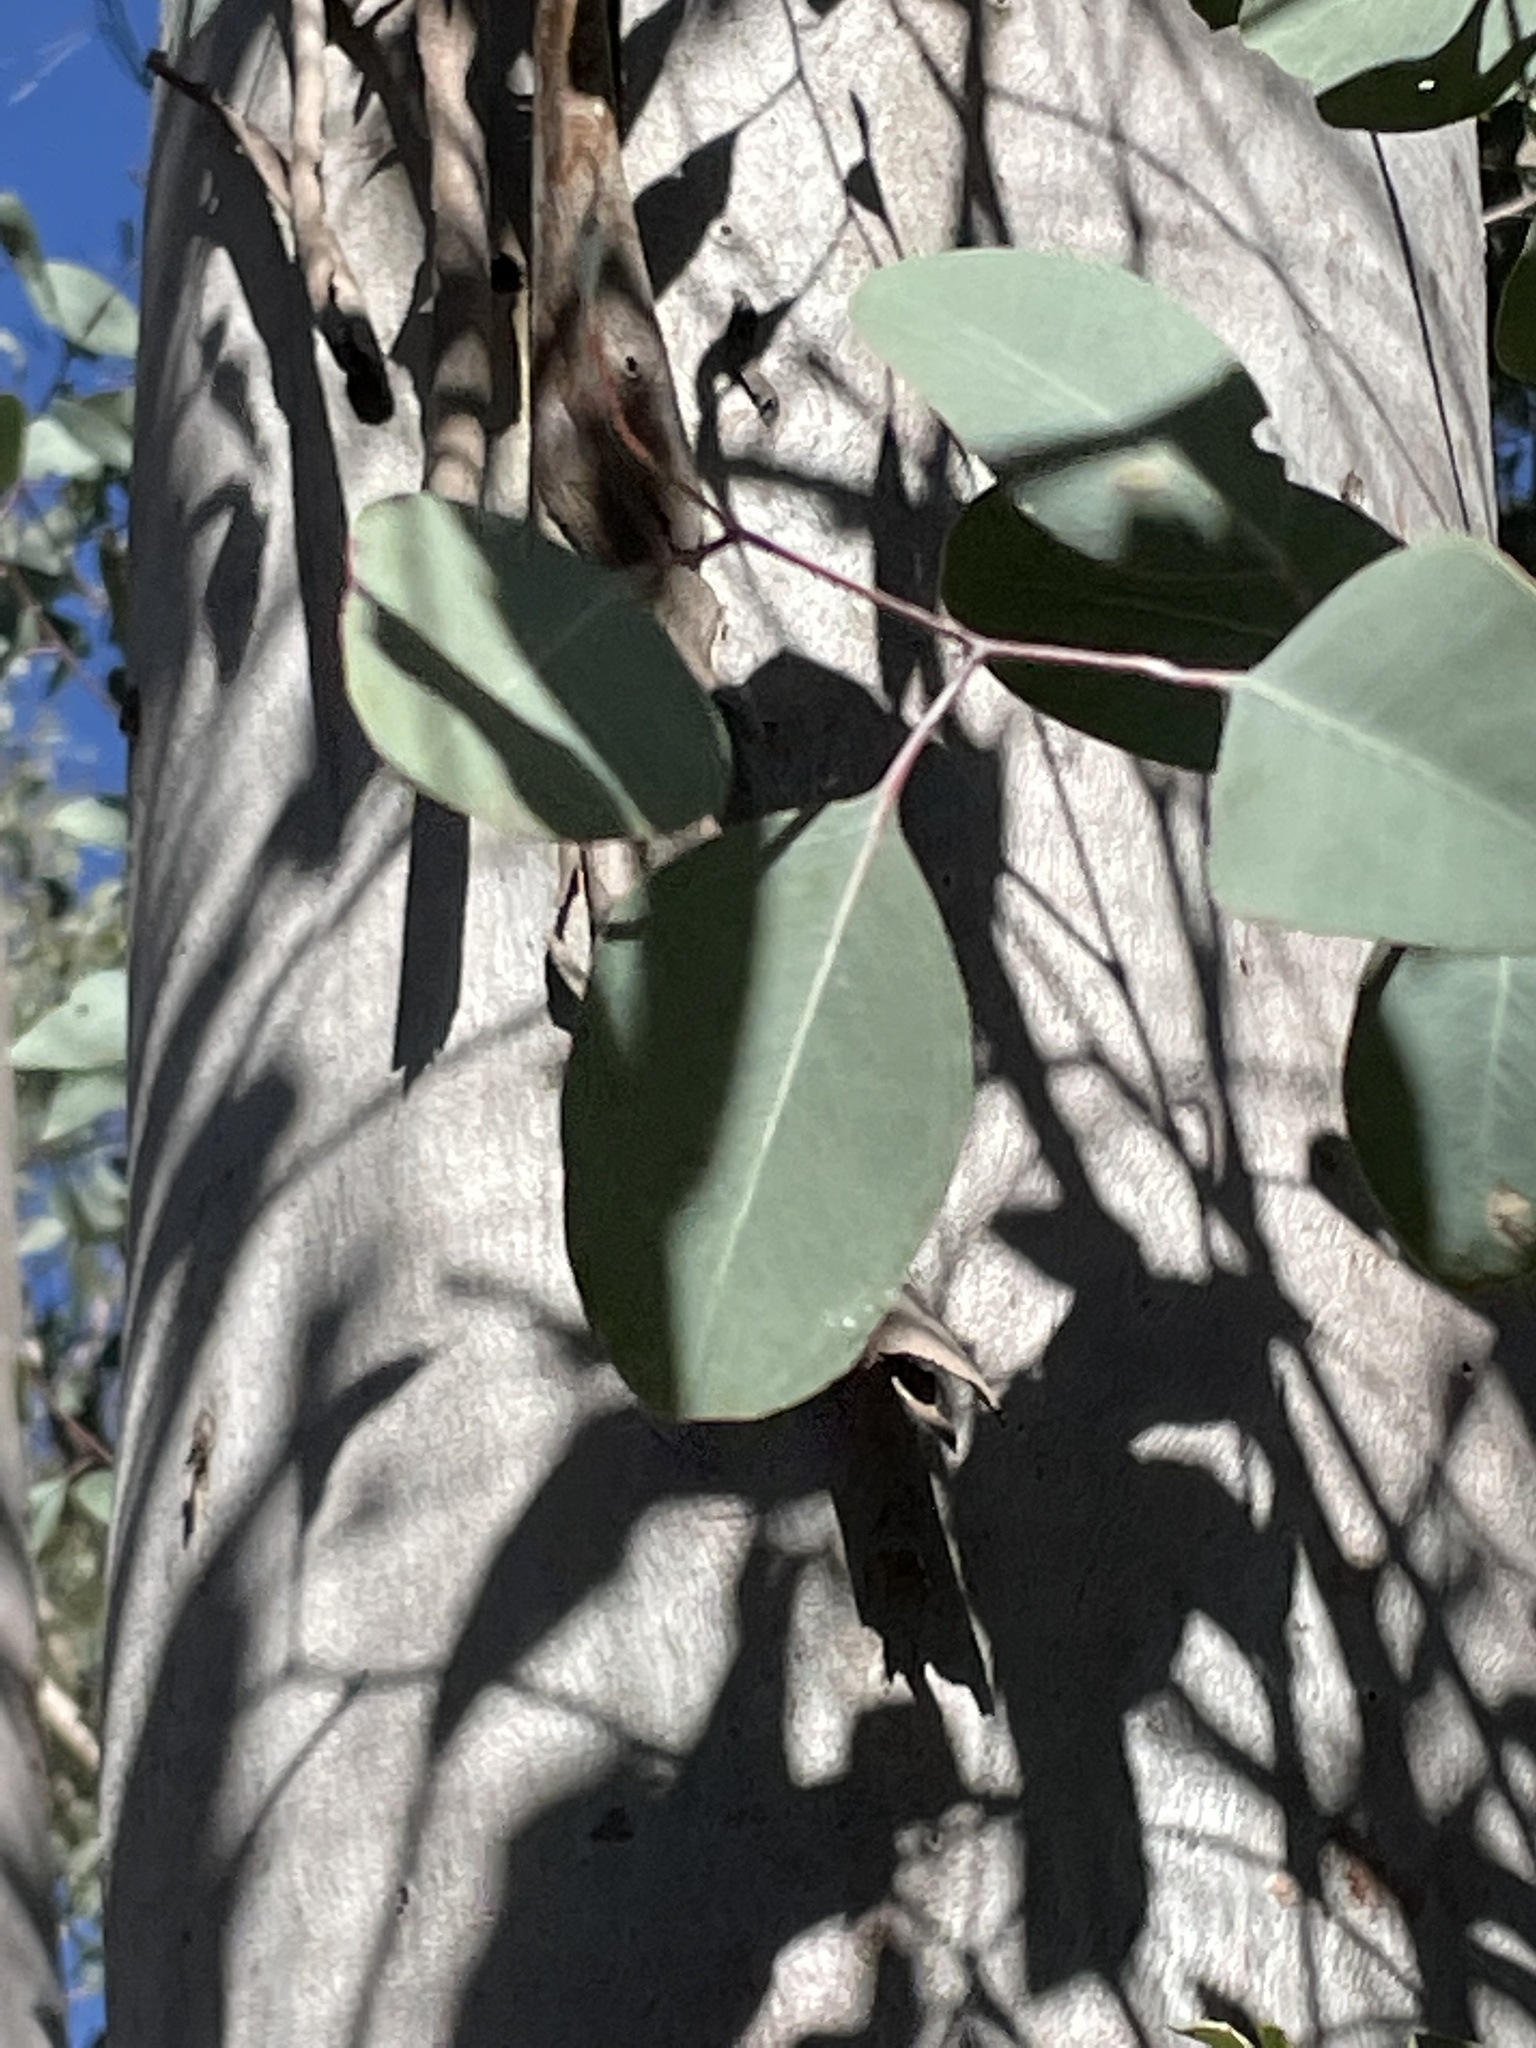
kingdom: Plantae
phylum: Tracheophyta
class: Magnoliopsida
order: Myrtales
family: Myrtaceae
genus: Eucalyptus
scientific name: Eucalyptus chloroclada
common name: Baradine red gum
